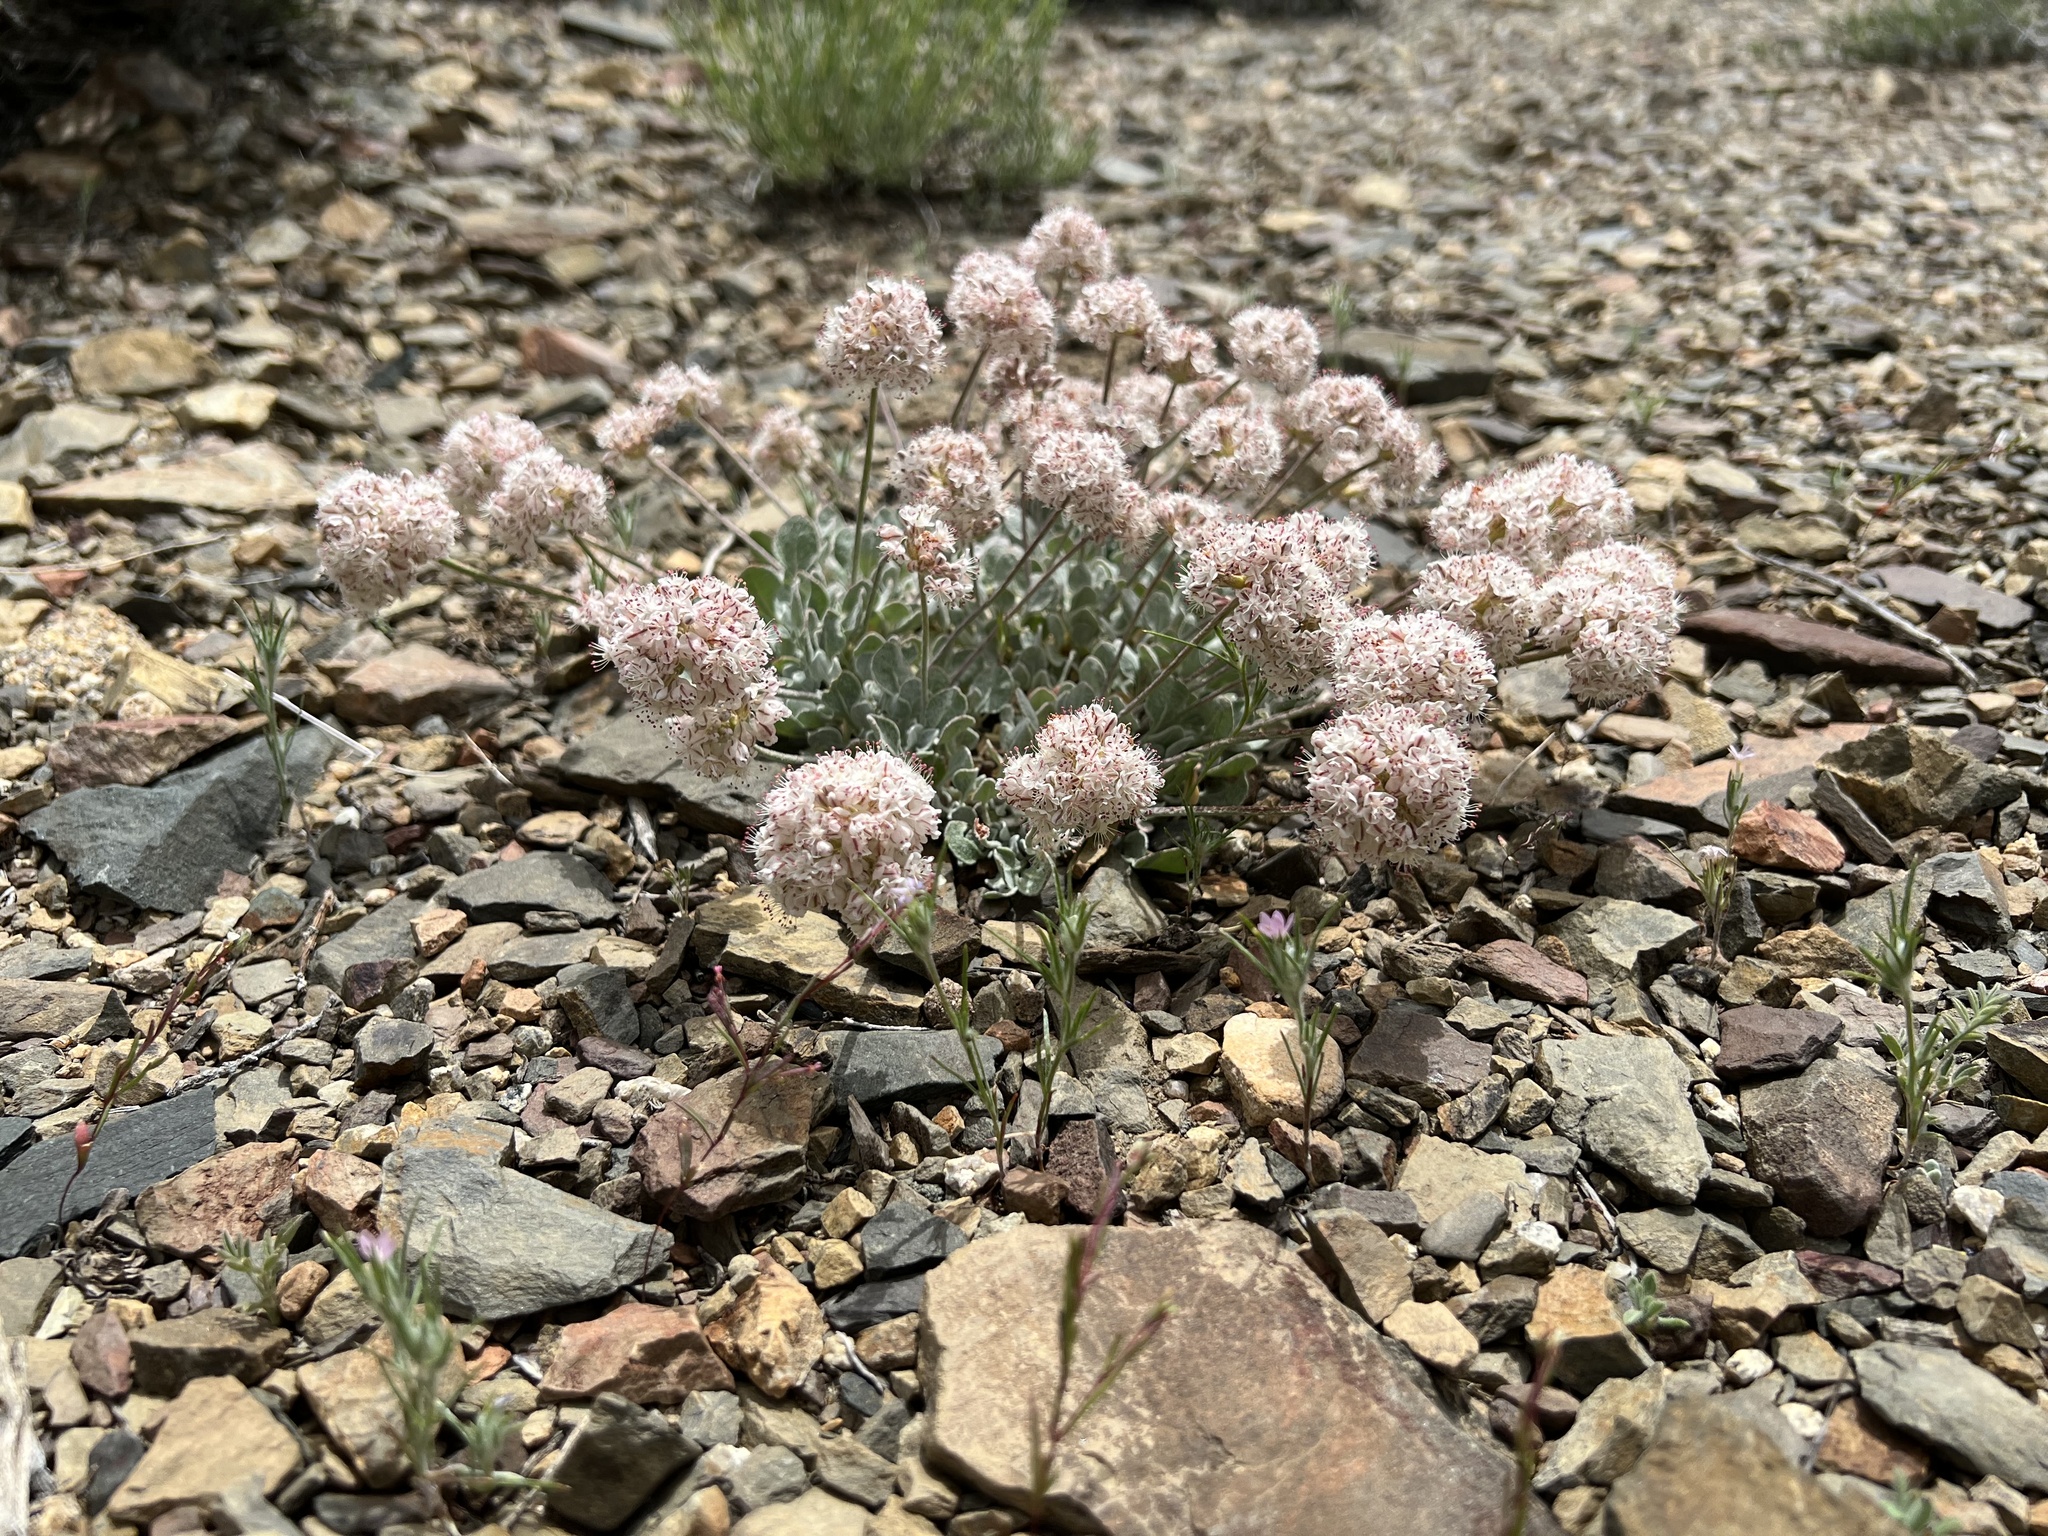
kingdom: Plantae
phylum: Tracheophyta
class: Magnoliopsida
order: Caryophyllales
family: Polygonaceae
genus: Eriogonum
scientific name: Eriogonum ovalifolium
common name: Cushion buckwheat
